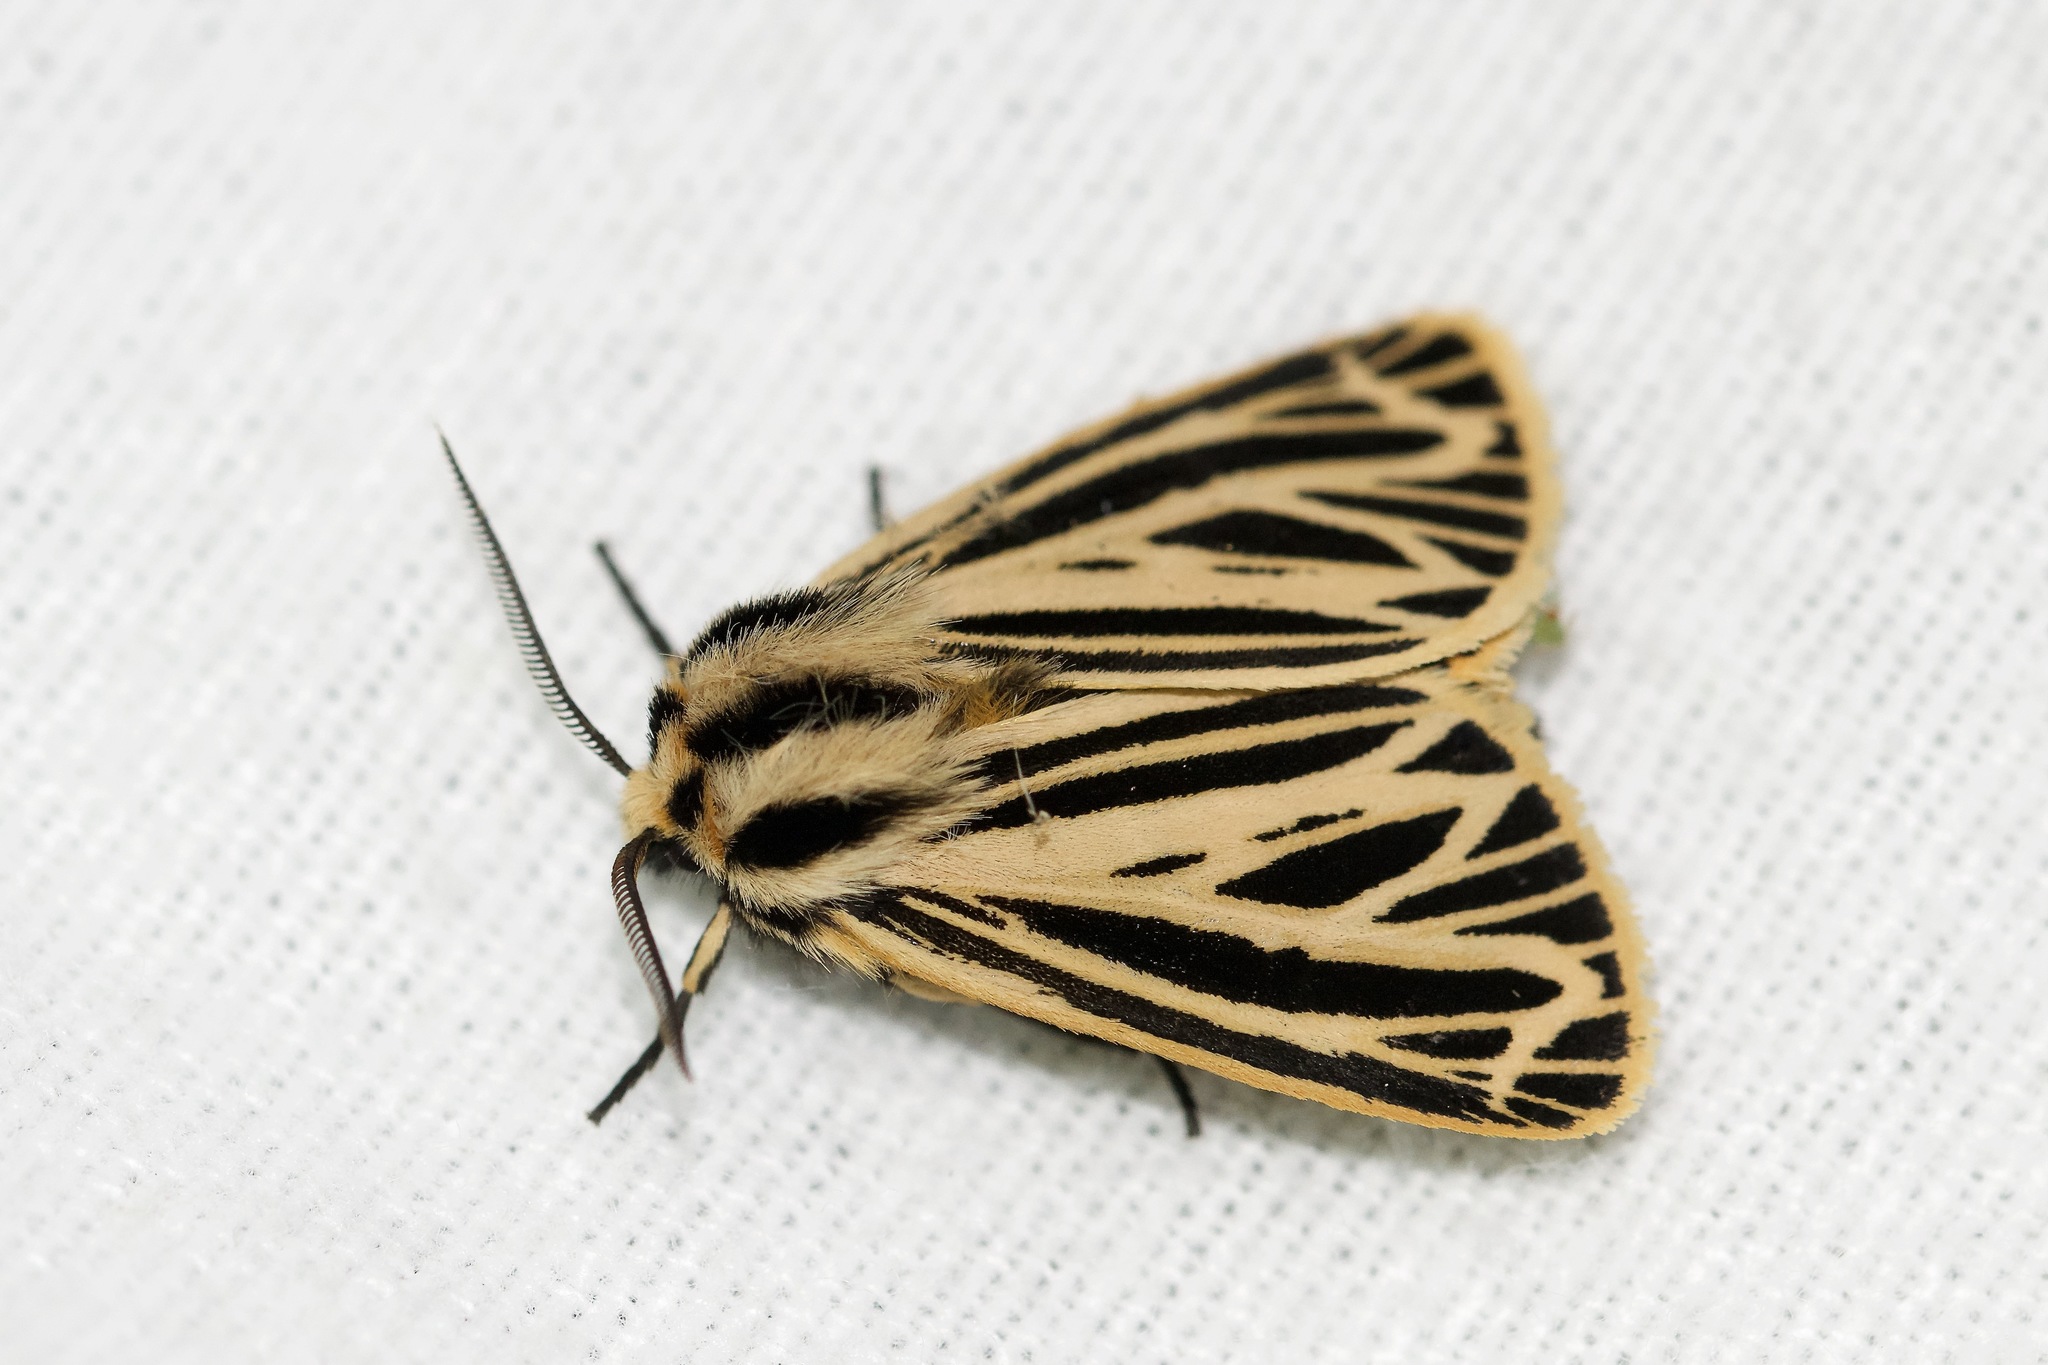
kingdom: Animalia
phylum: Arthropoda
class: Insecta
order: Lepidoptera
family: Erebidae
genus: Grammia
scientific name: Grammia virguncula
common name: Little tiger moth
